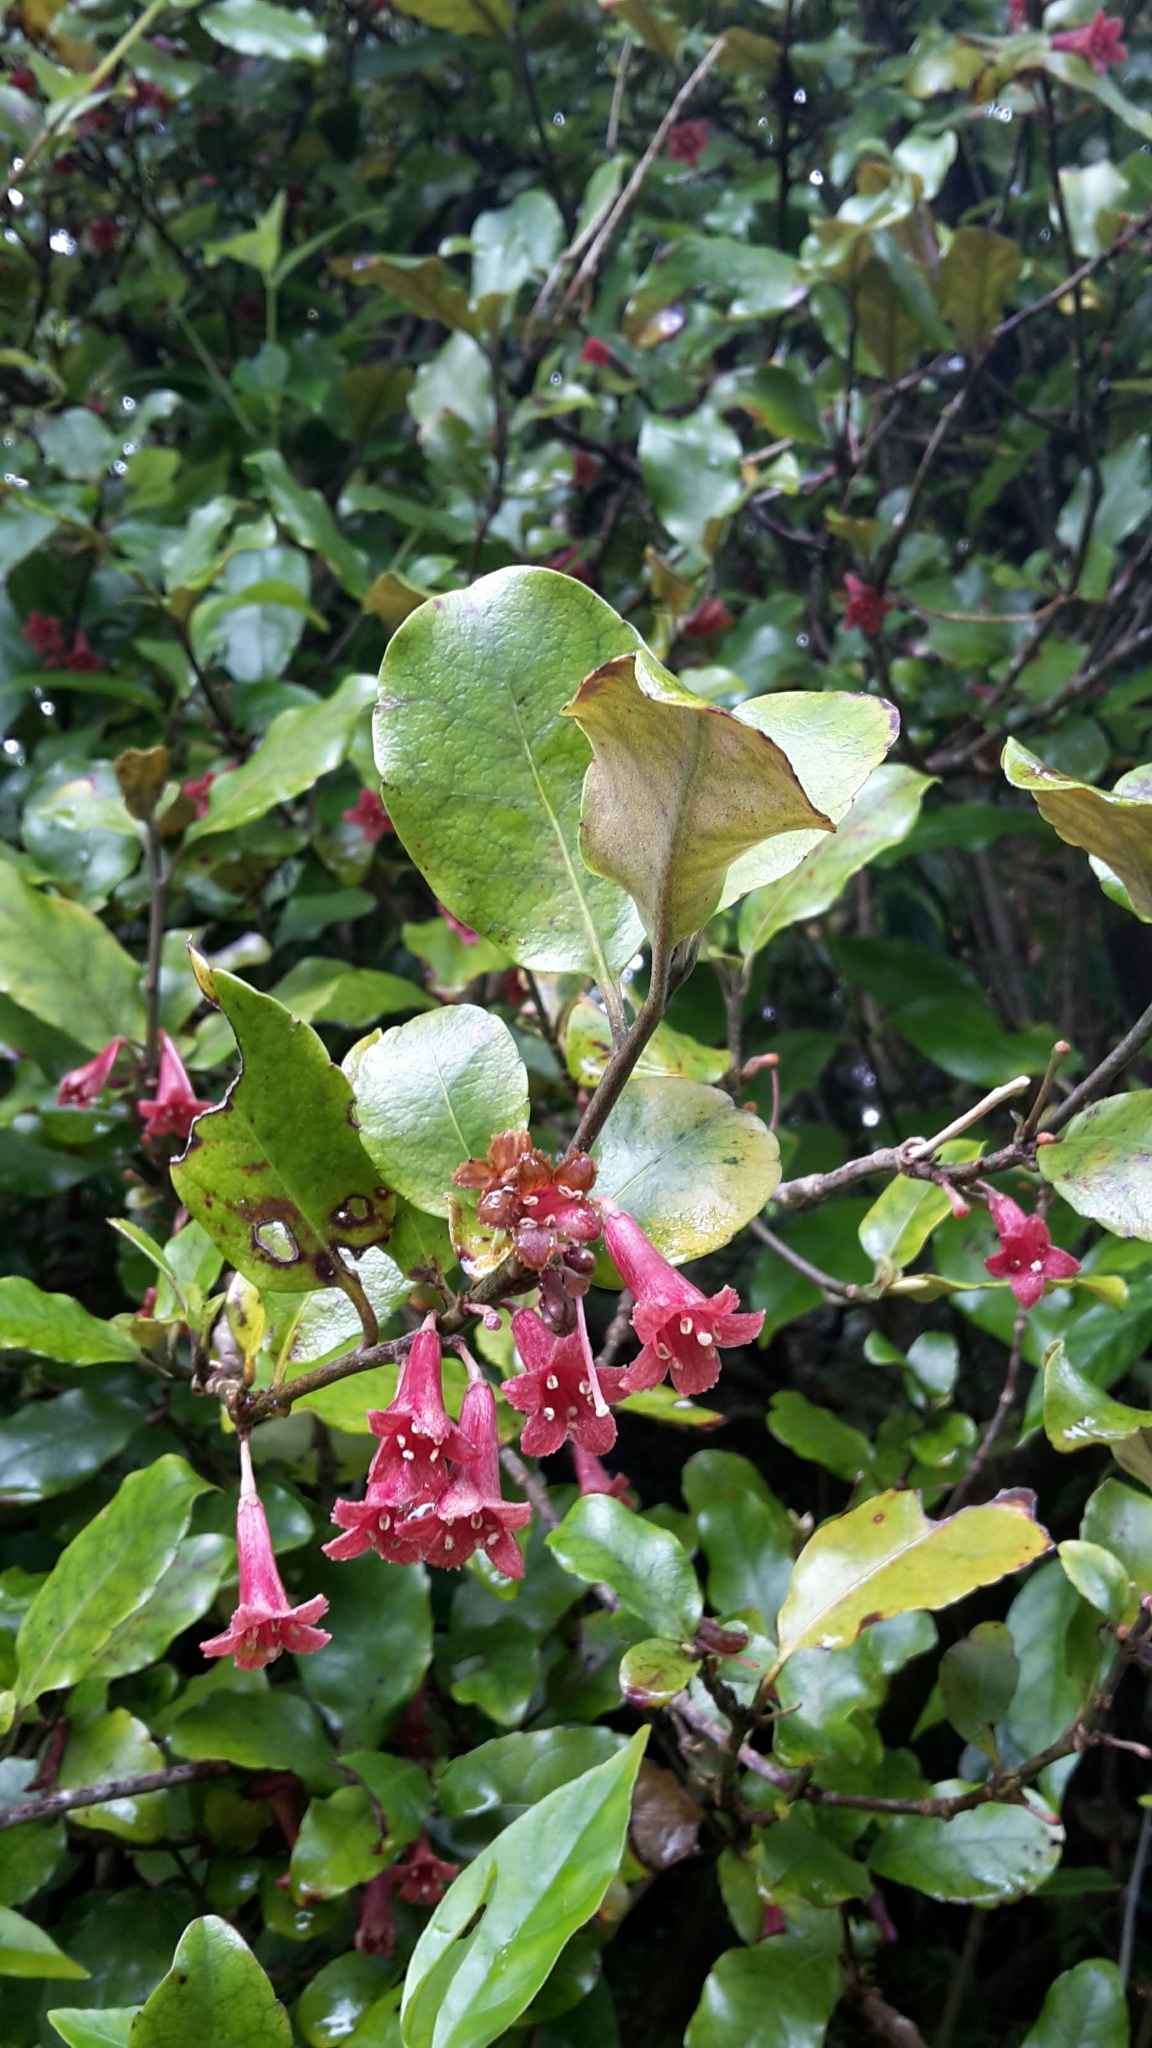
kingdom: Plantae
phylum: Tracheophyta
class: Magnoliopsida
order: Asterales
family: Alseuosmiaceae
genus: Alseuosmia
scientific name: Alseuosmia macrophylla
